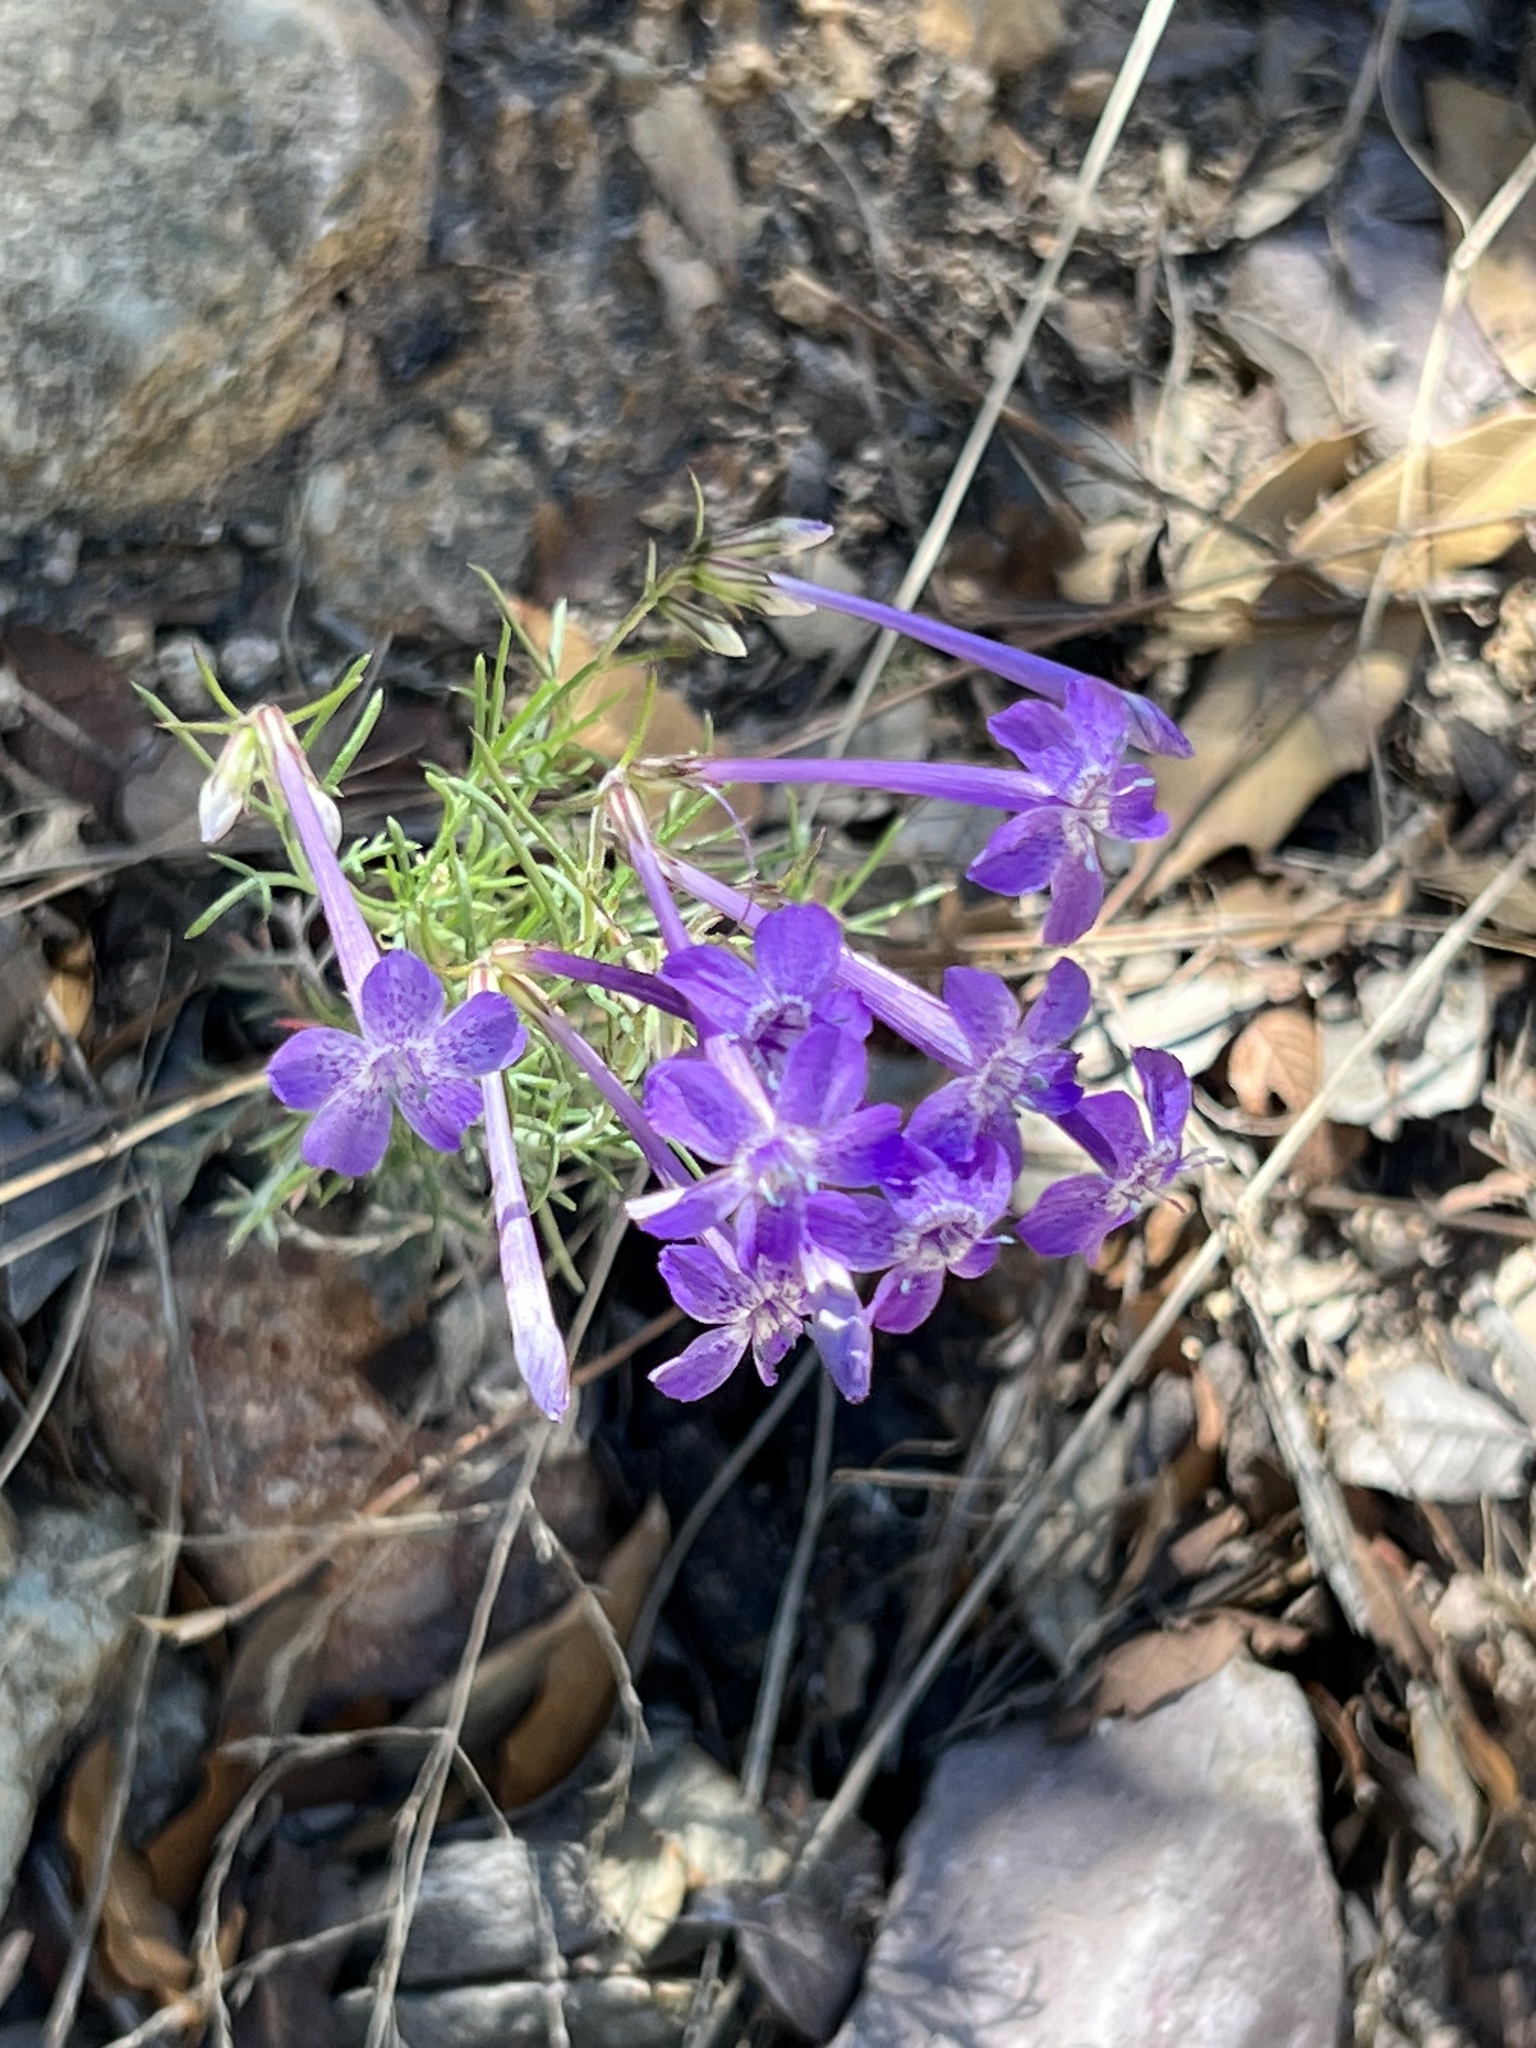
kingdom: Plantae
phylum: Tracheophyta
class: Magnoliopsida
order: Ericales
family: Polemoniaceae
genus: Ipomopsis
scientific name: Ipomopsis thurberi
